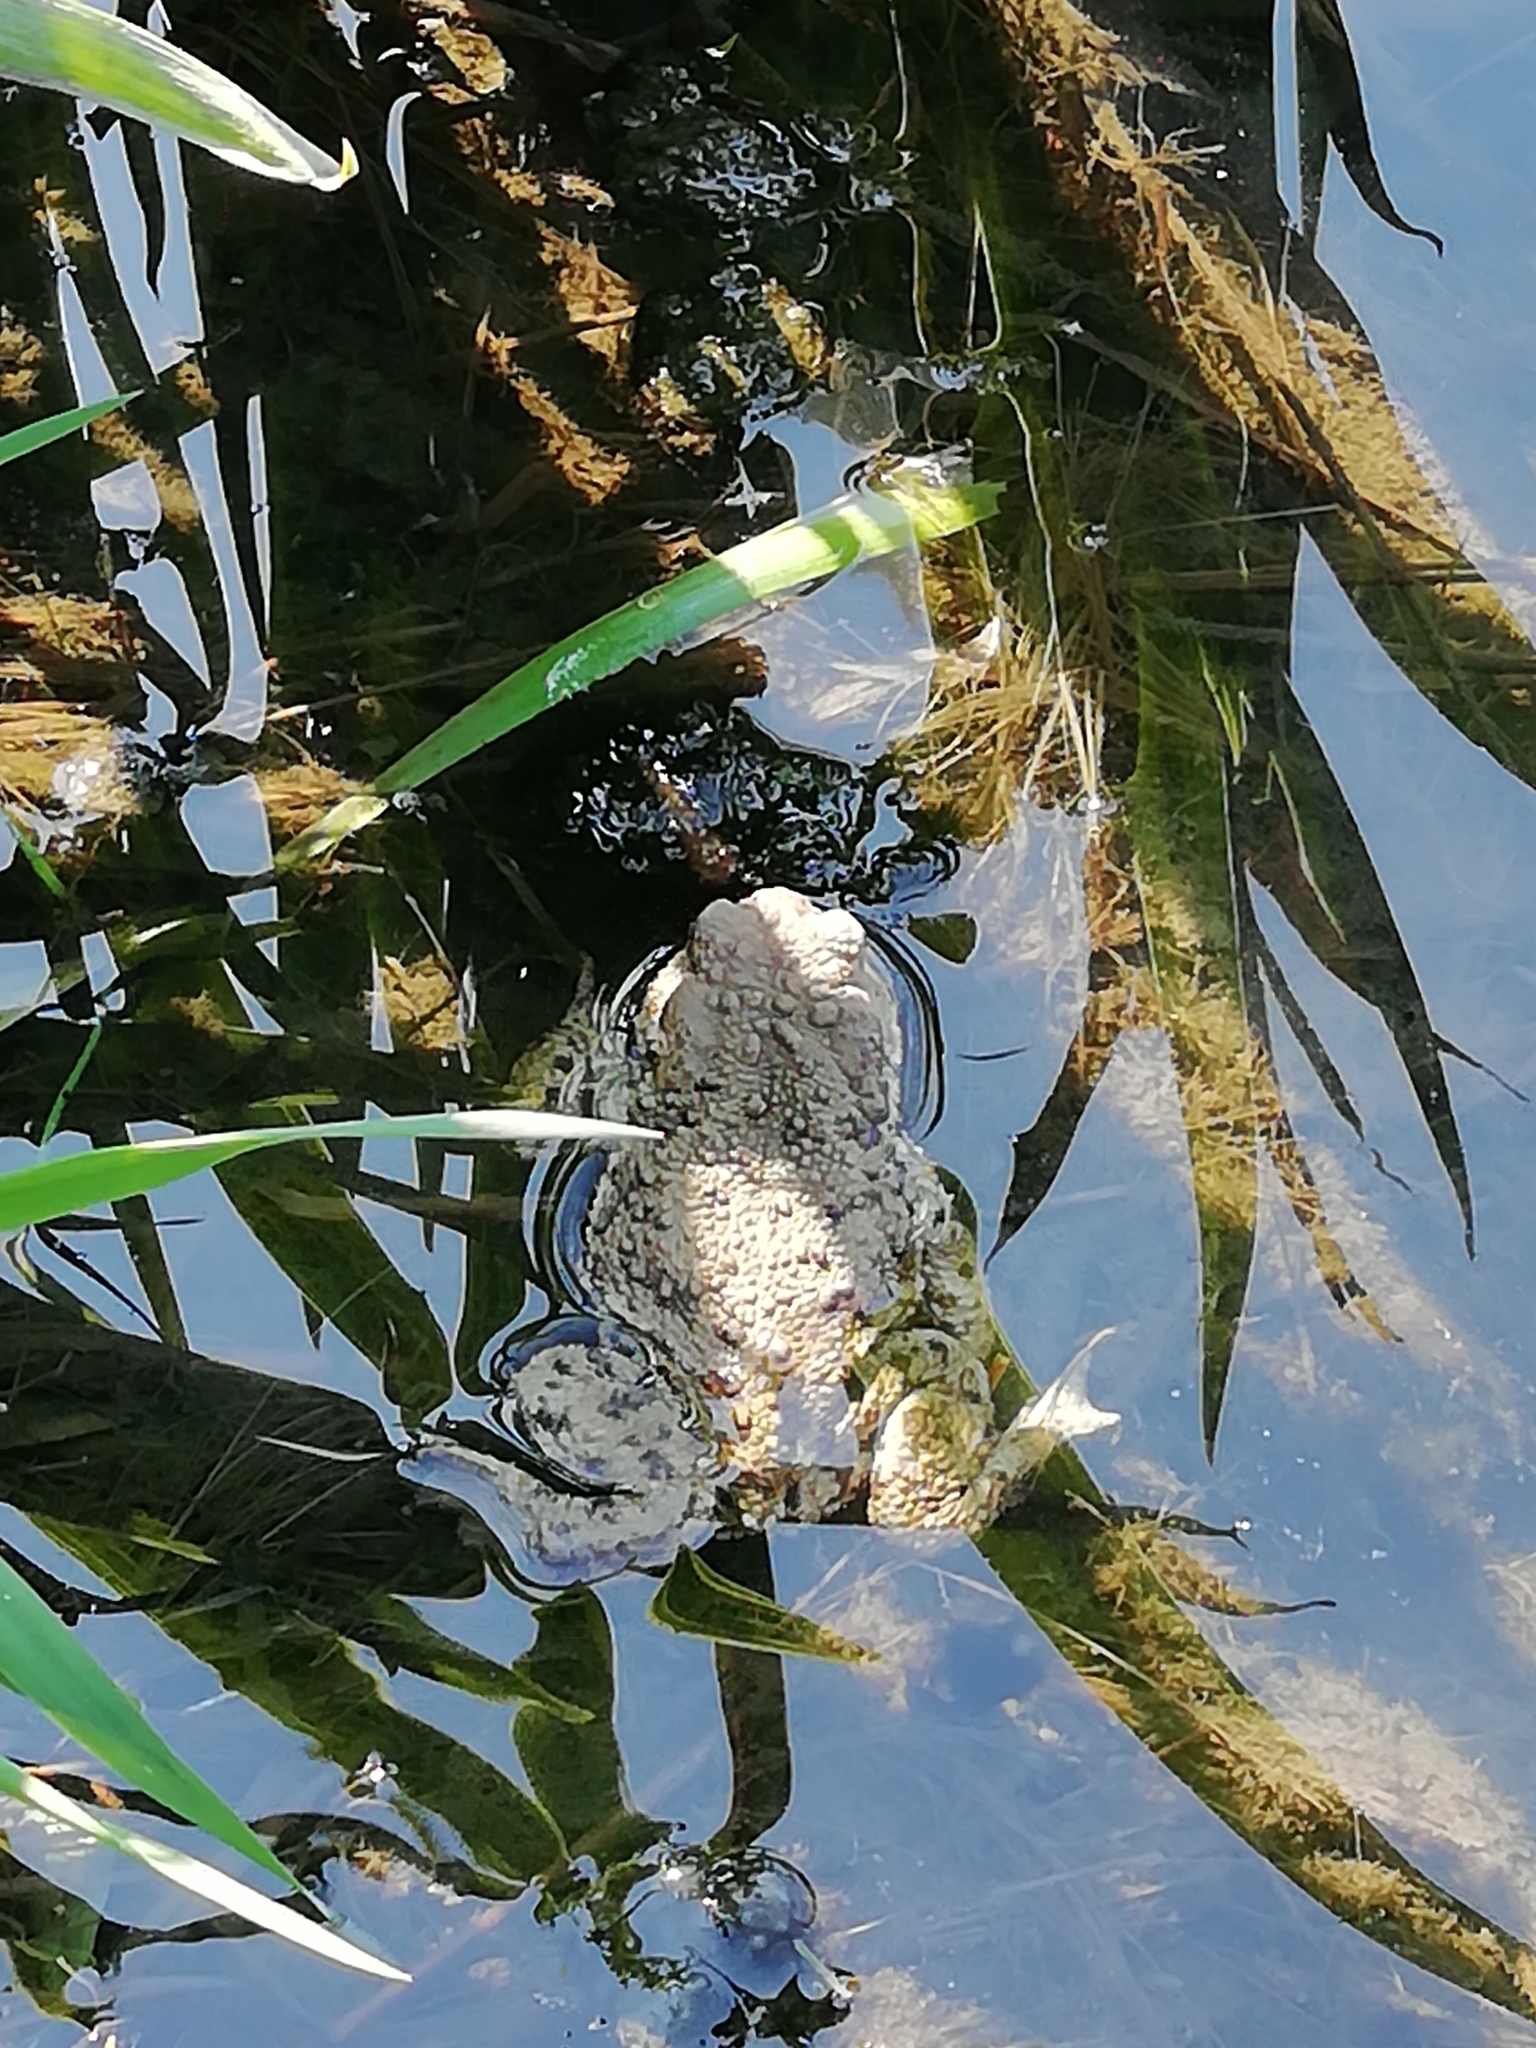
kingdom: Animalia
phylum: Chordata
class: Amphibia
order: Anura
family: Bufonidae
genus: Bufo
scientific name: Bufo bufo
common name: Common toad
